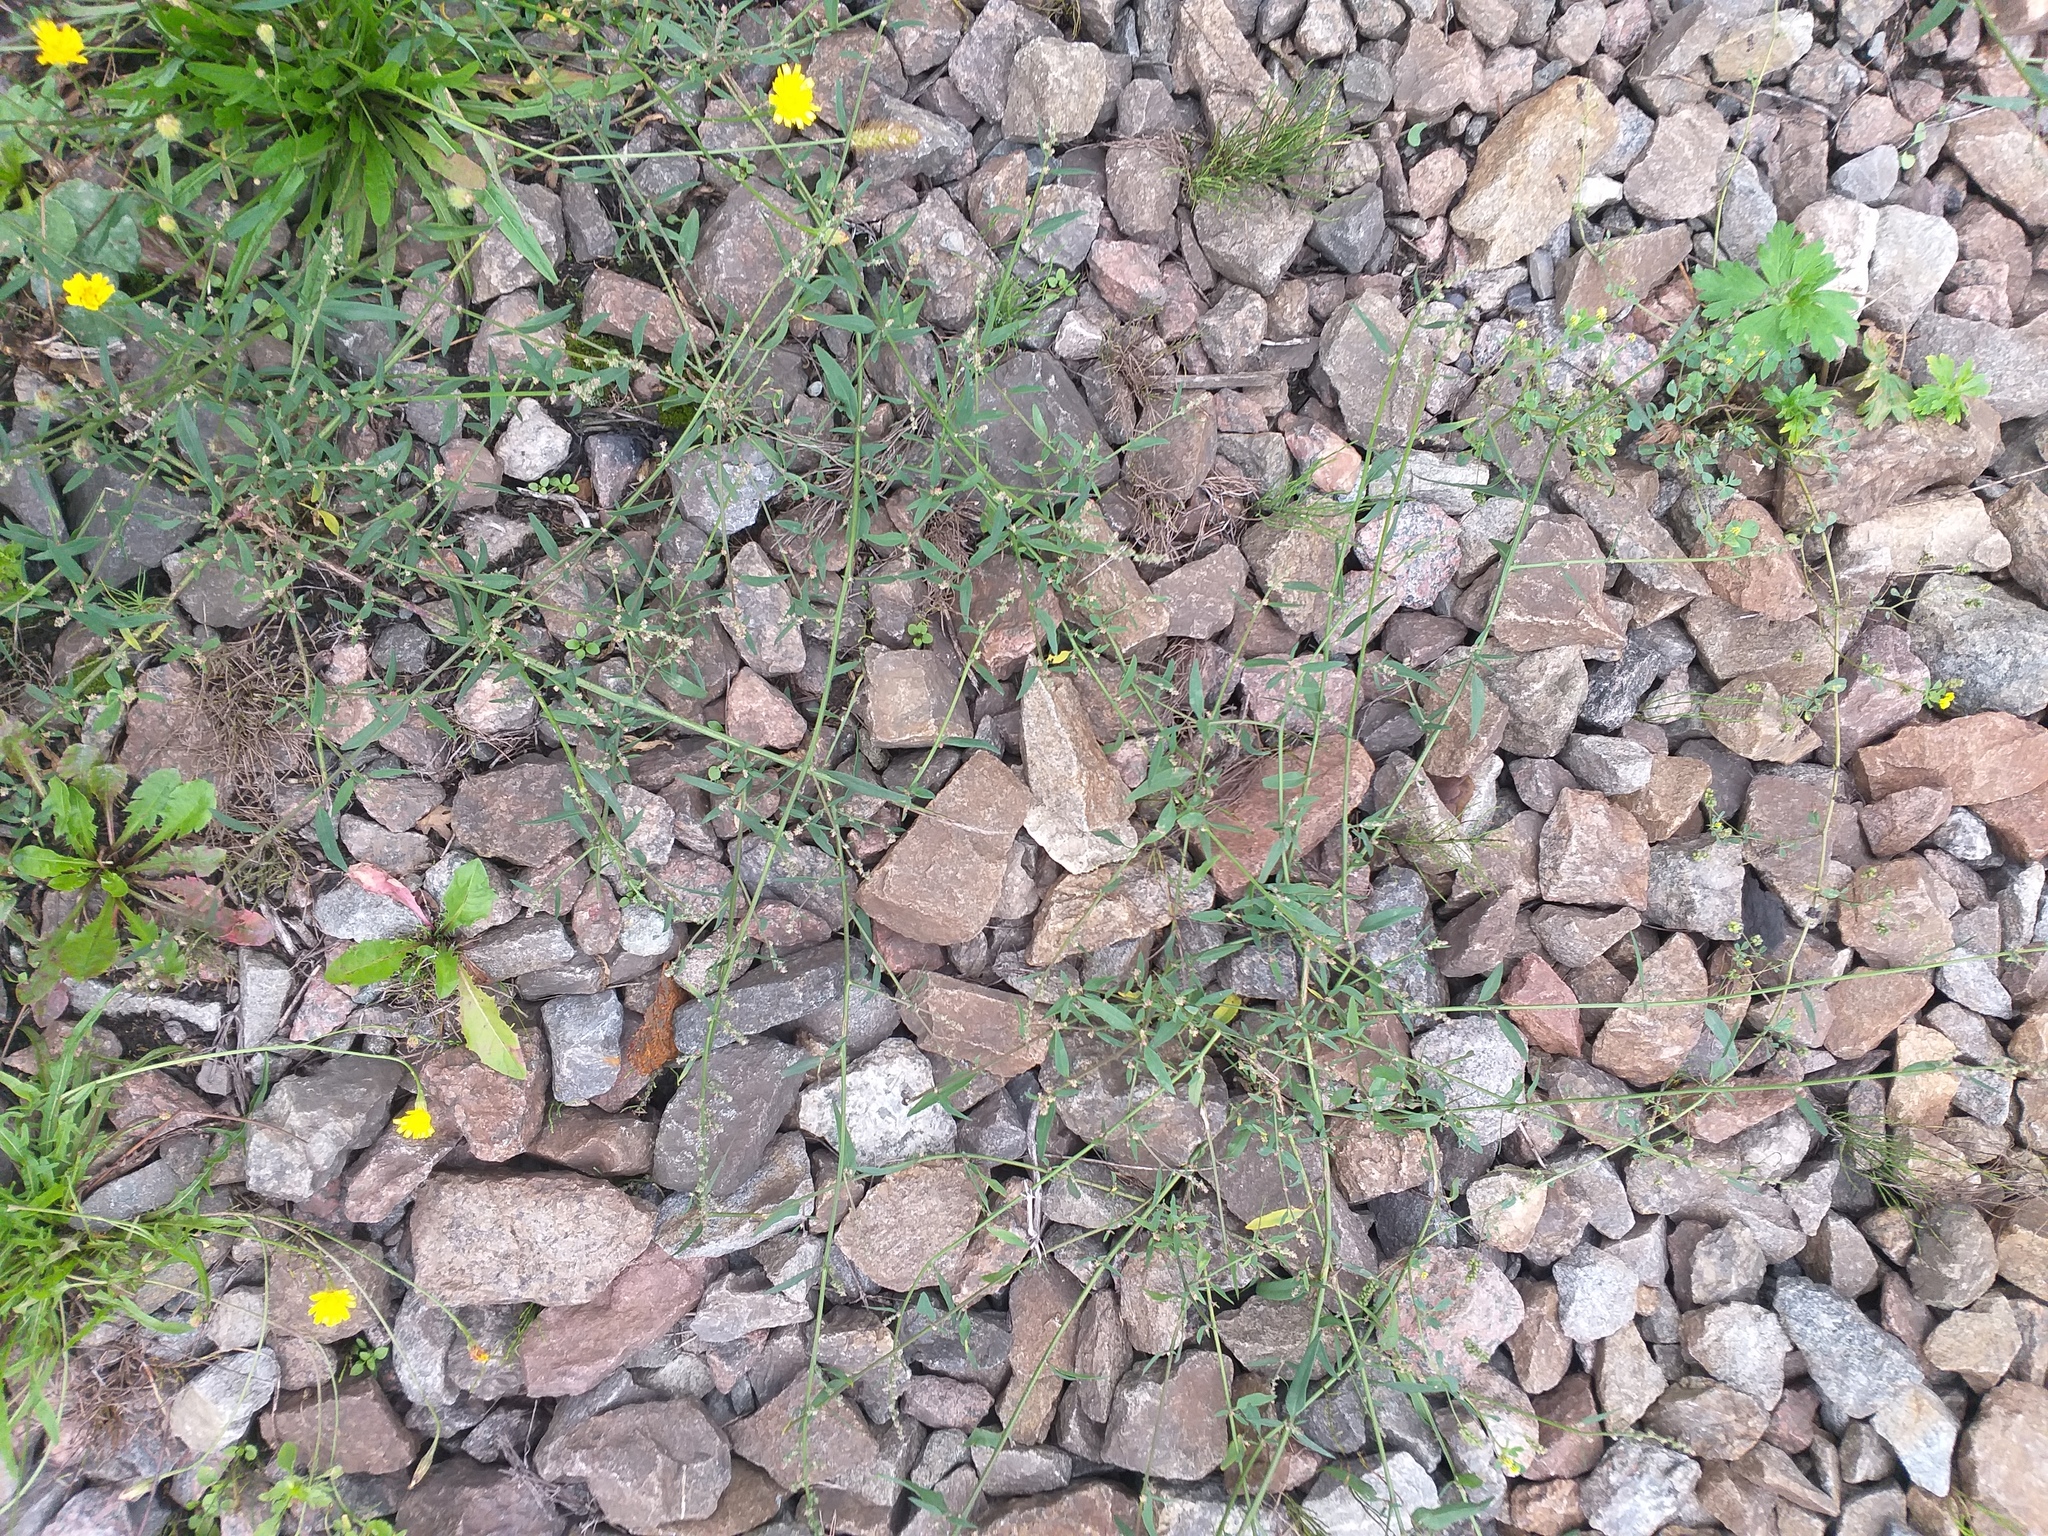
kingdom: Plantae
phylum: Tracheophyta
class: Magnoliopsida
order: Caryophyllales
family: Amaranthaceae
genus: Atriplex
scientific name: Atriplex patula
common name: Common orache
